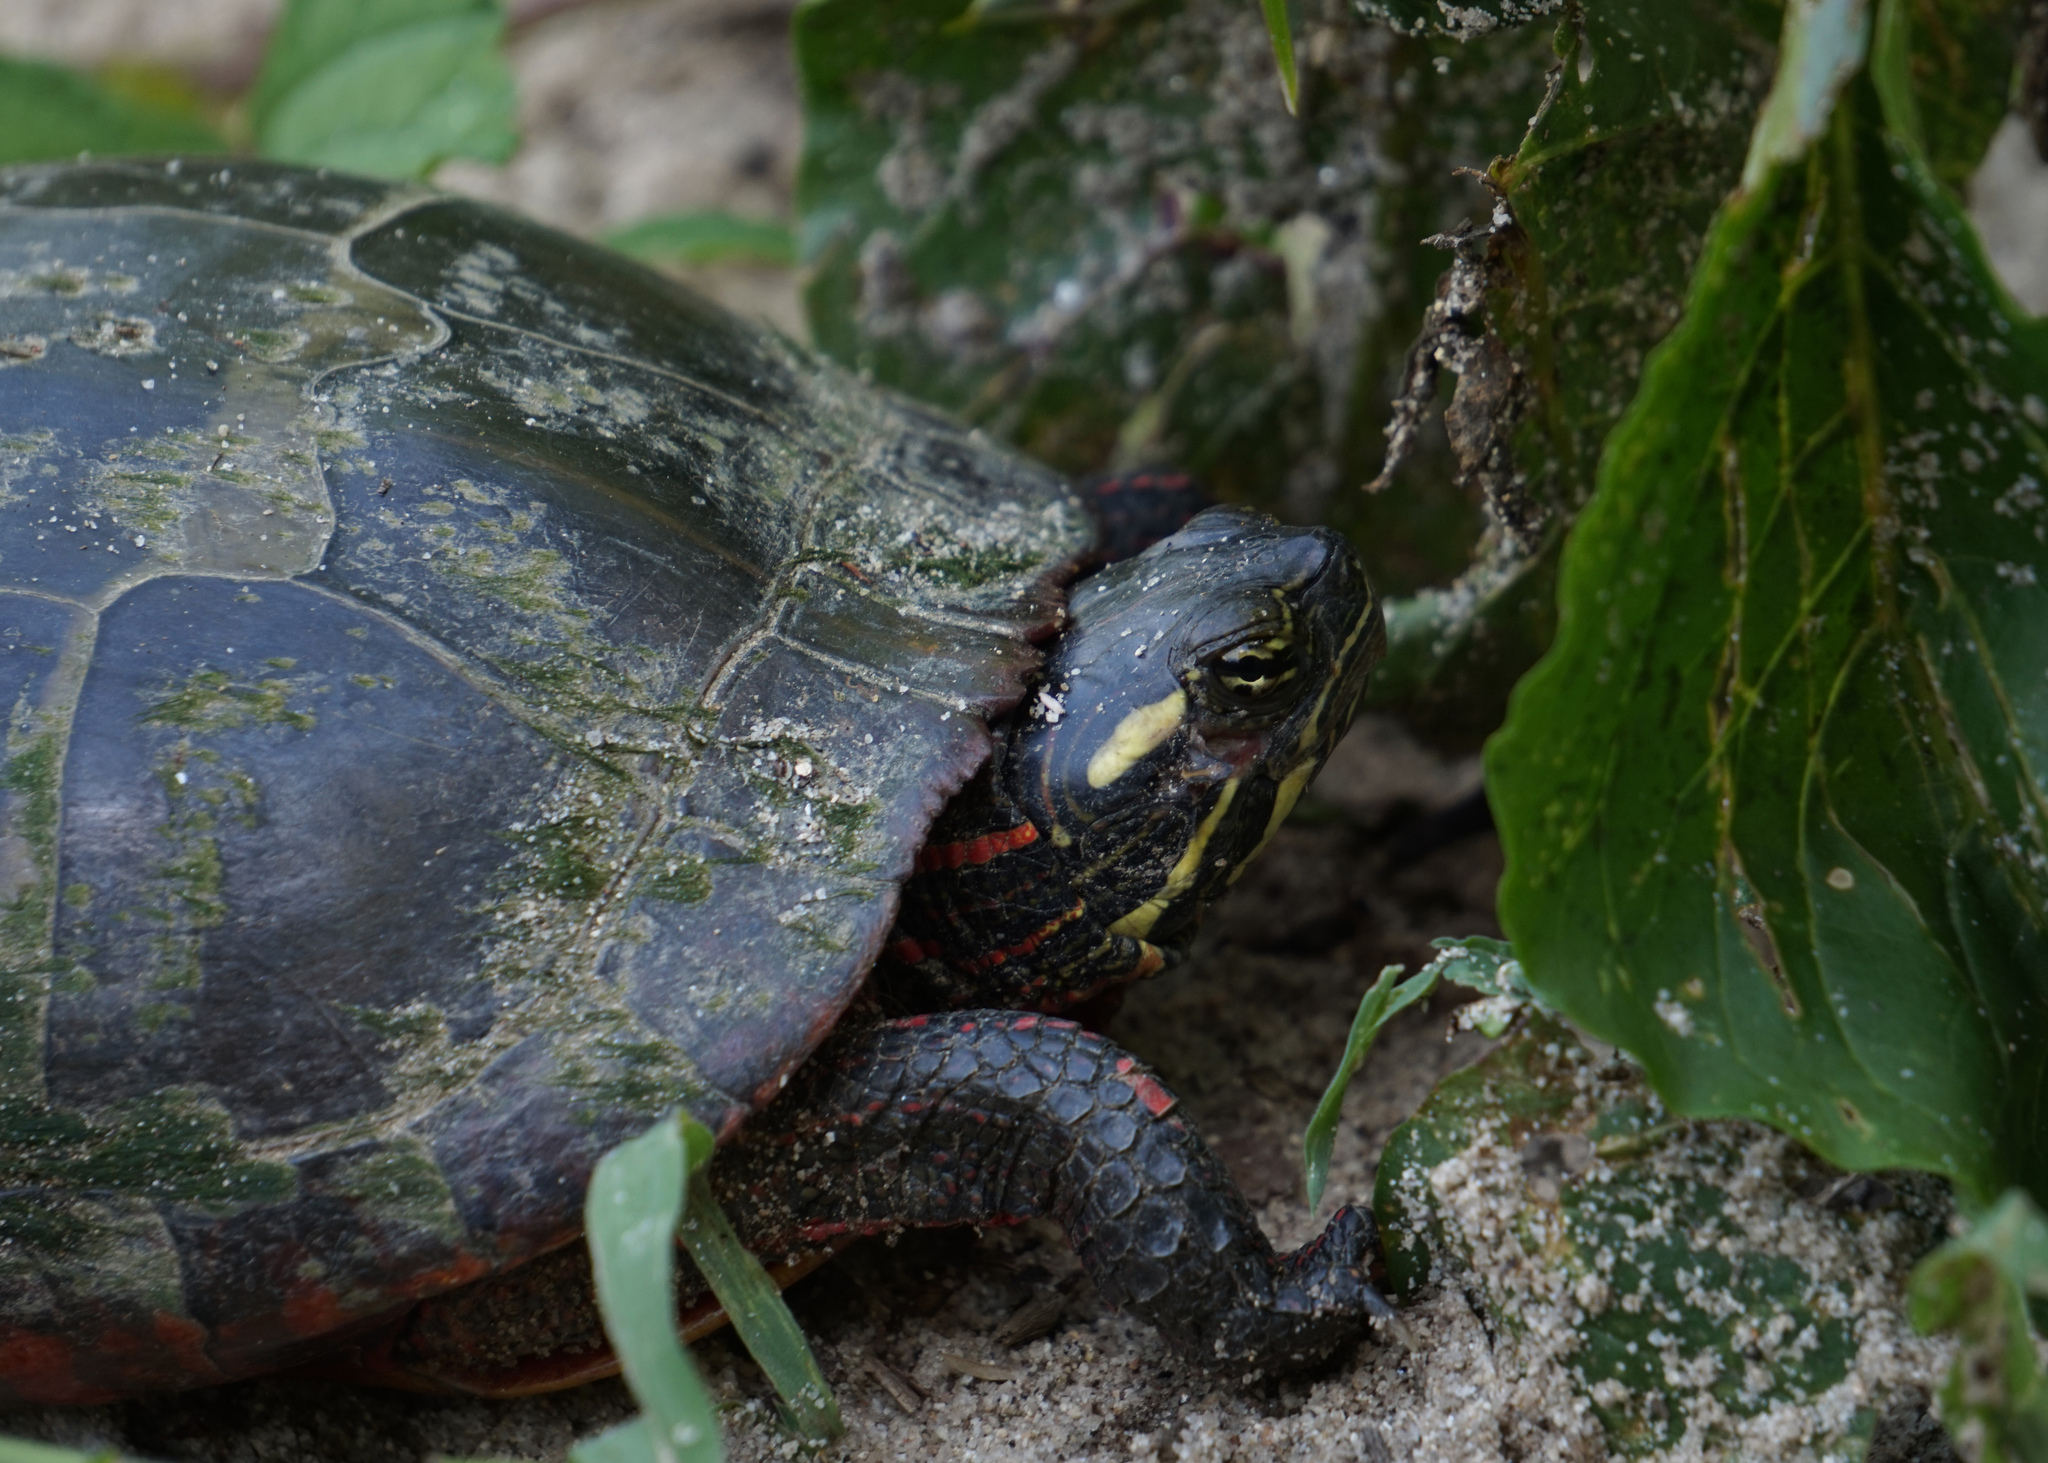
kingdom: Animalia
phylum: Chordata
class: Testudines
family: Emydidae
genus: Chrysemys
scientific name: Chrysemys picta
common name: Painted turtle
